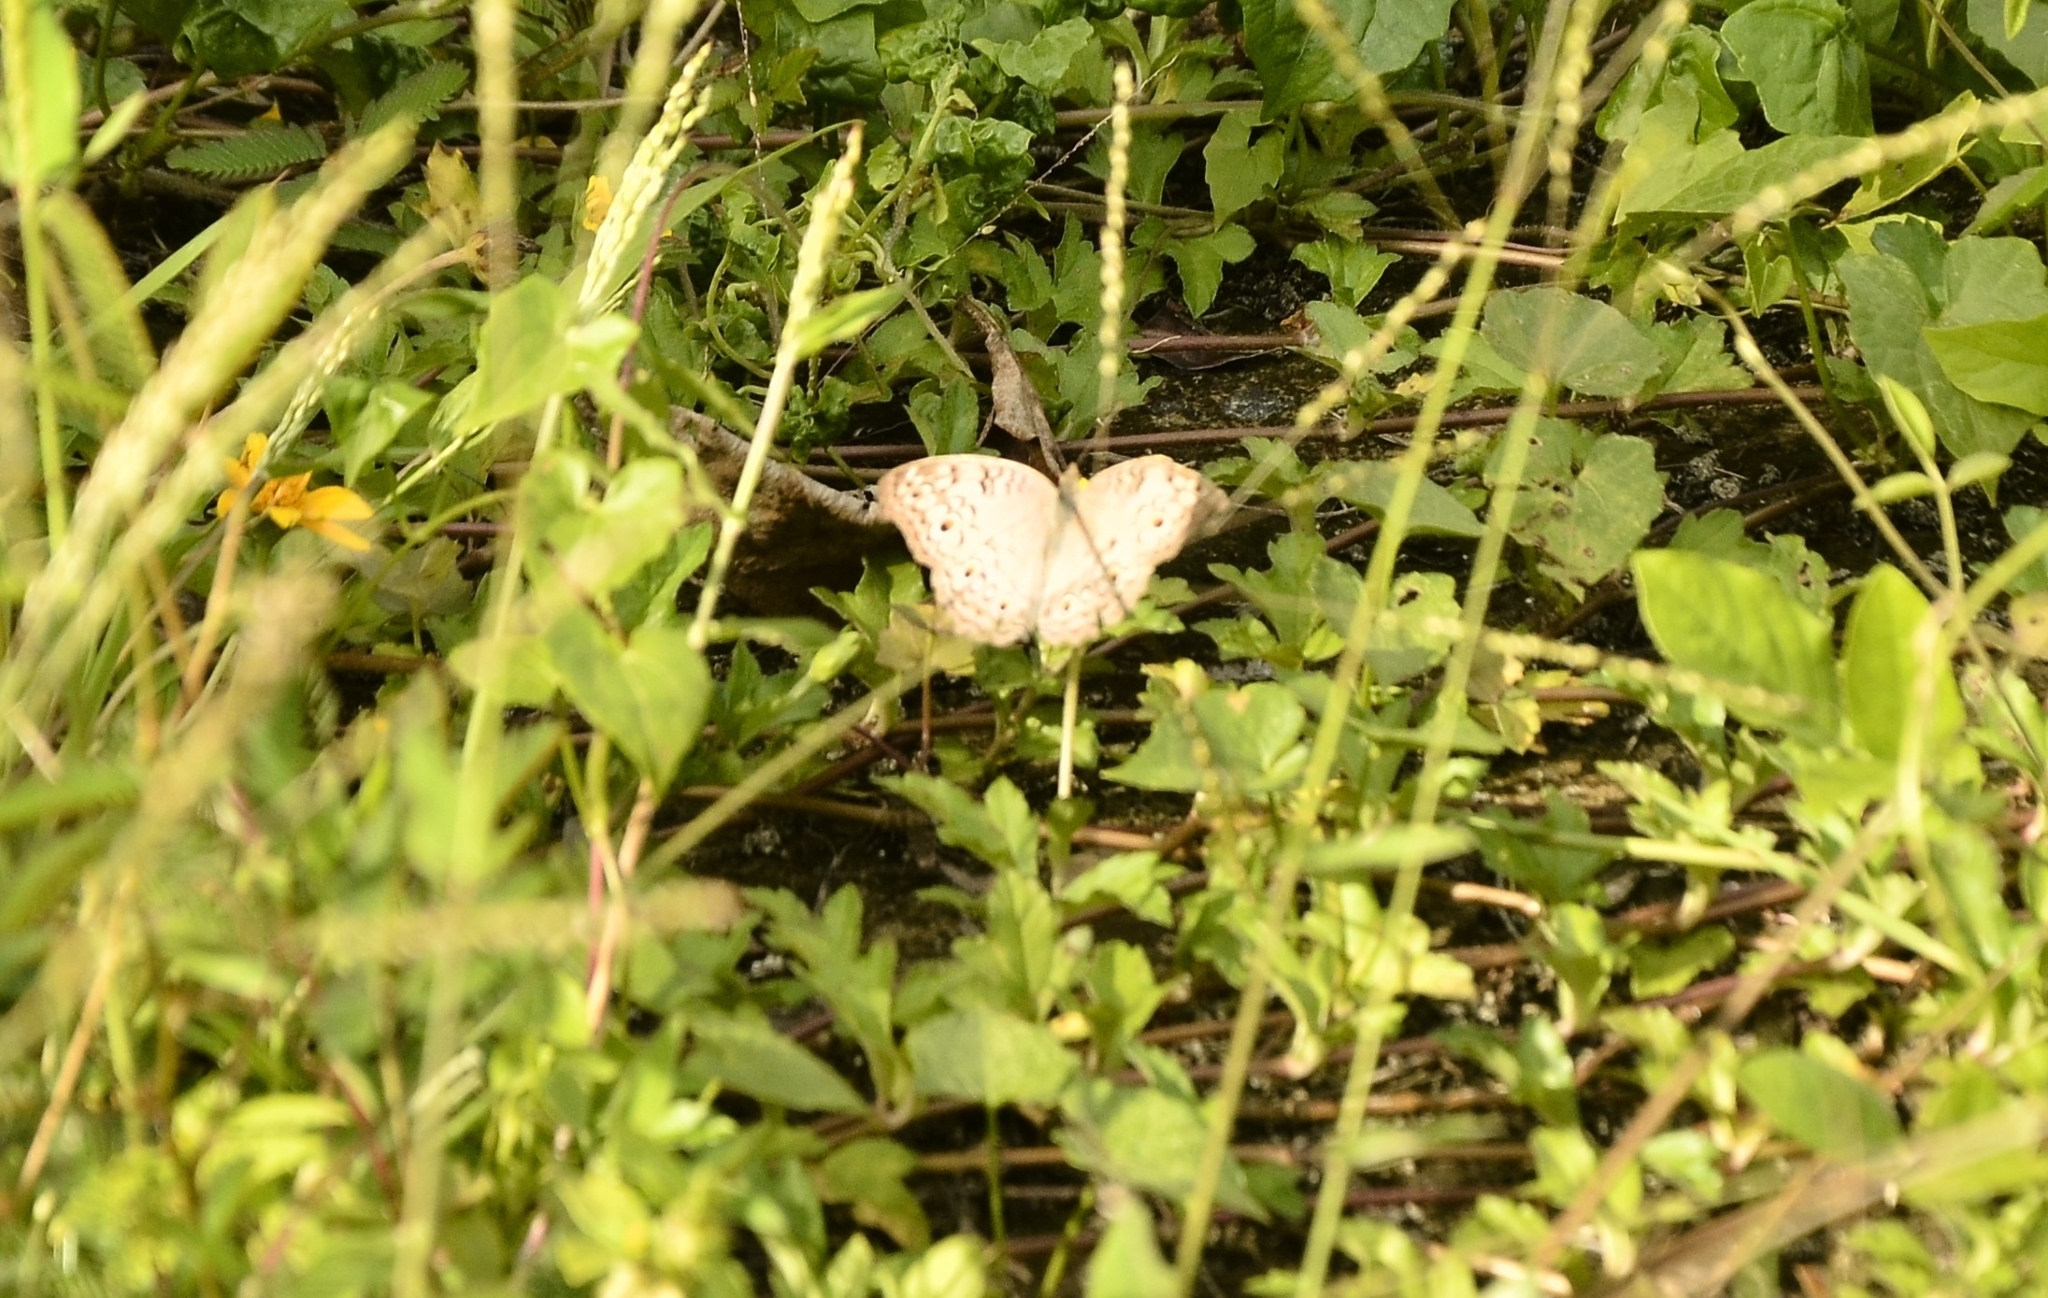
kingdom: Animalia
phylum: Arthropoda
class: Insecta
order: Lepidoptera
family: Nymphalidae
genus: Junonia
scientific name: Junonia atlites
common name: Grey pansy
